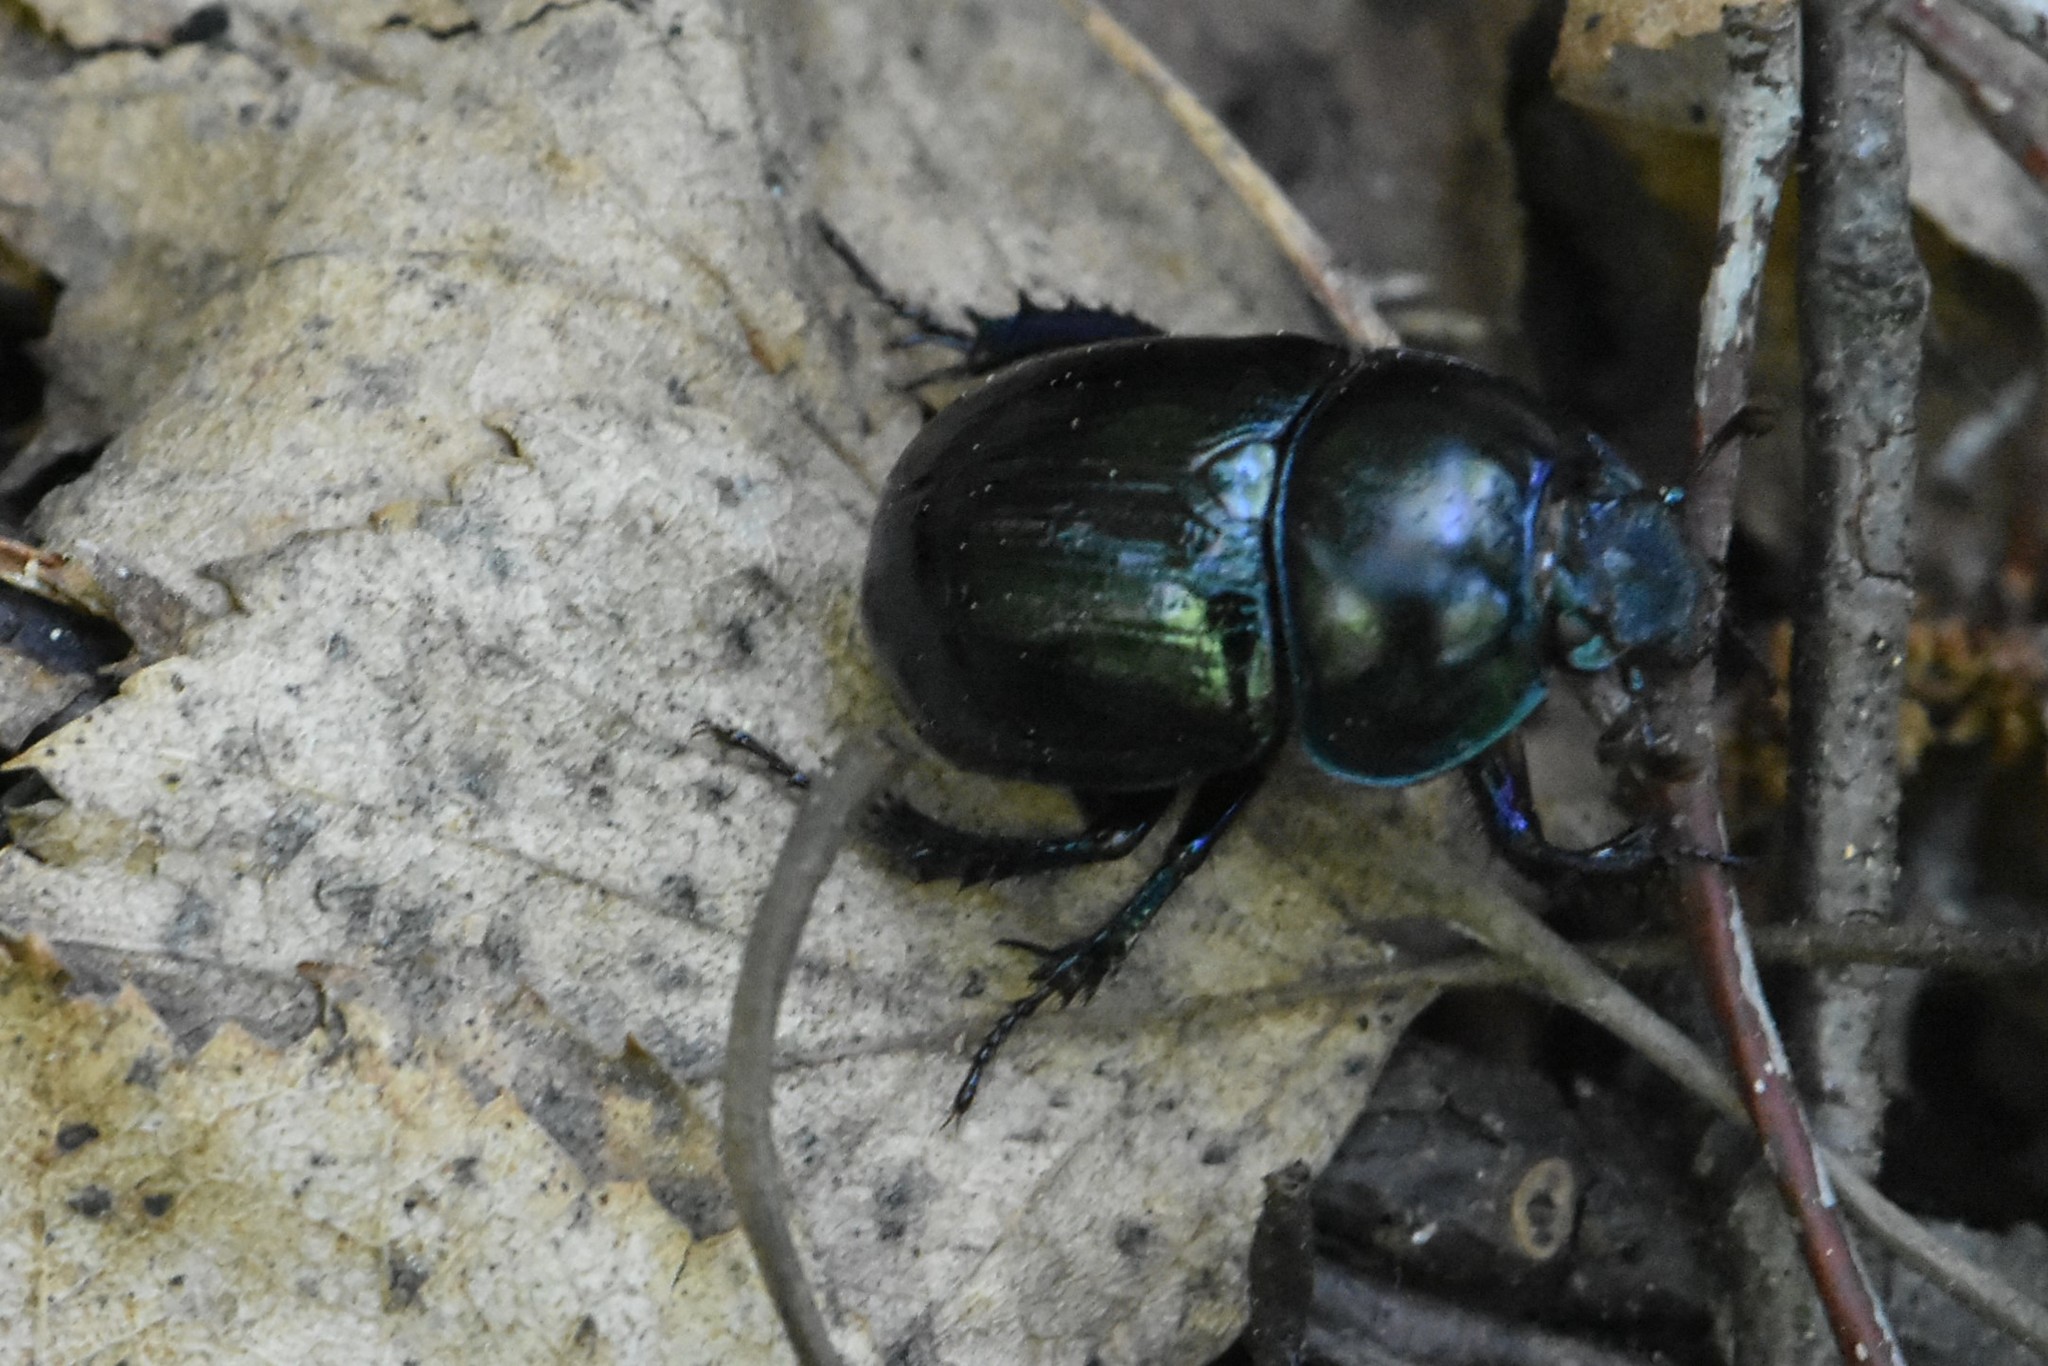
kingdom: Animalia
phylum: Arthropoda
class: Insecta
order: Coleoptera
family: Geotrupidae
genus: Anoplotrupes
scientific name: Anoplotrupes stercorosus
